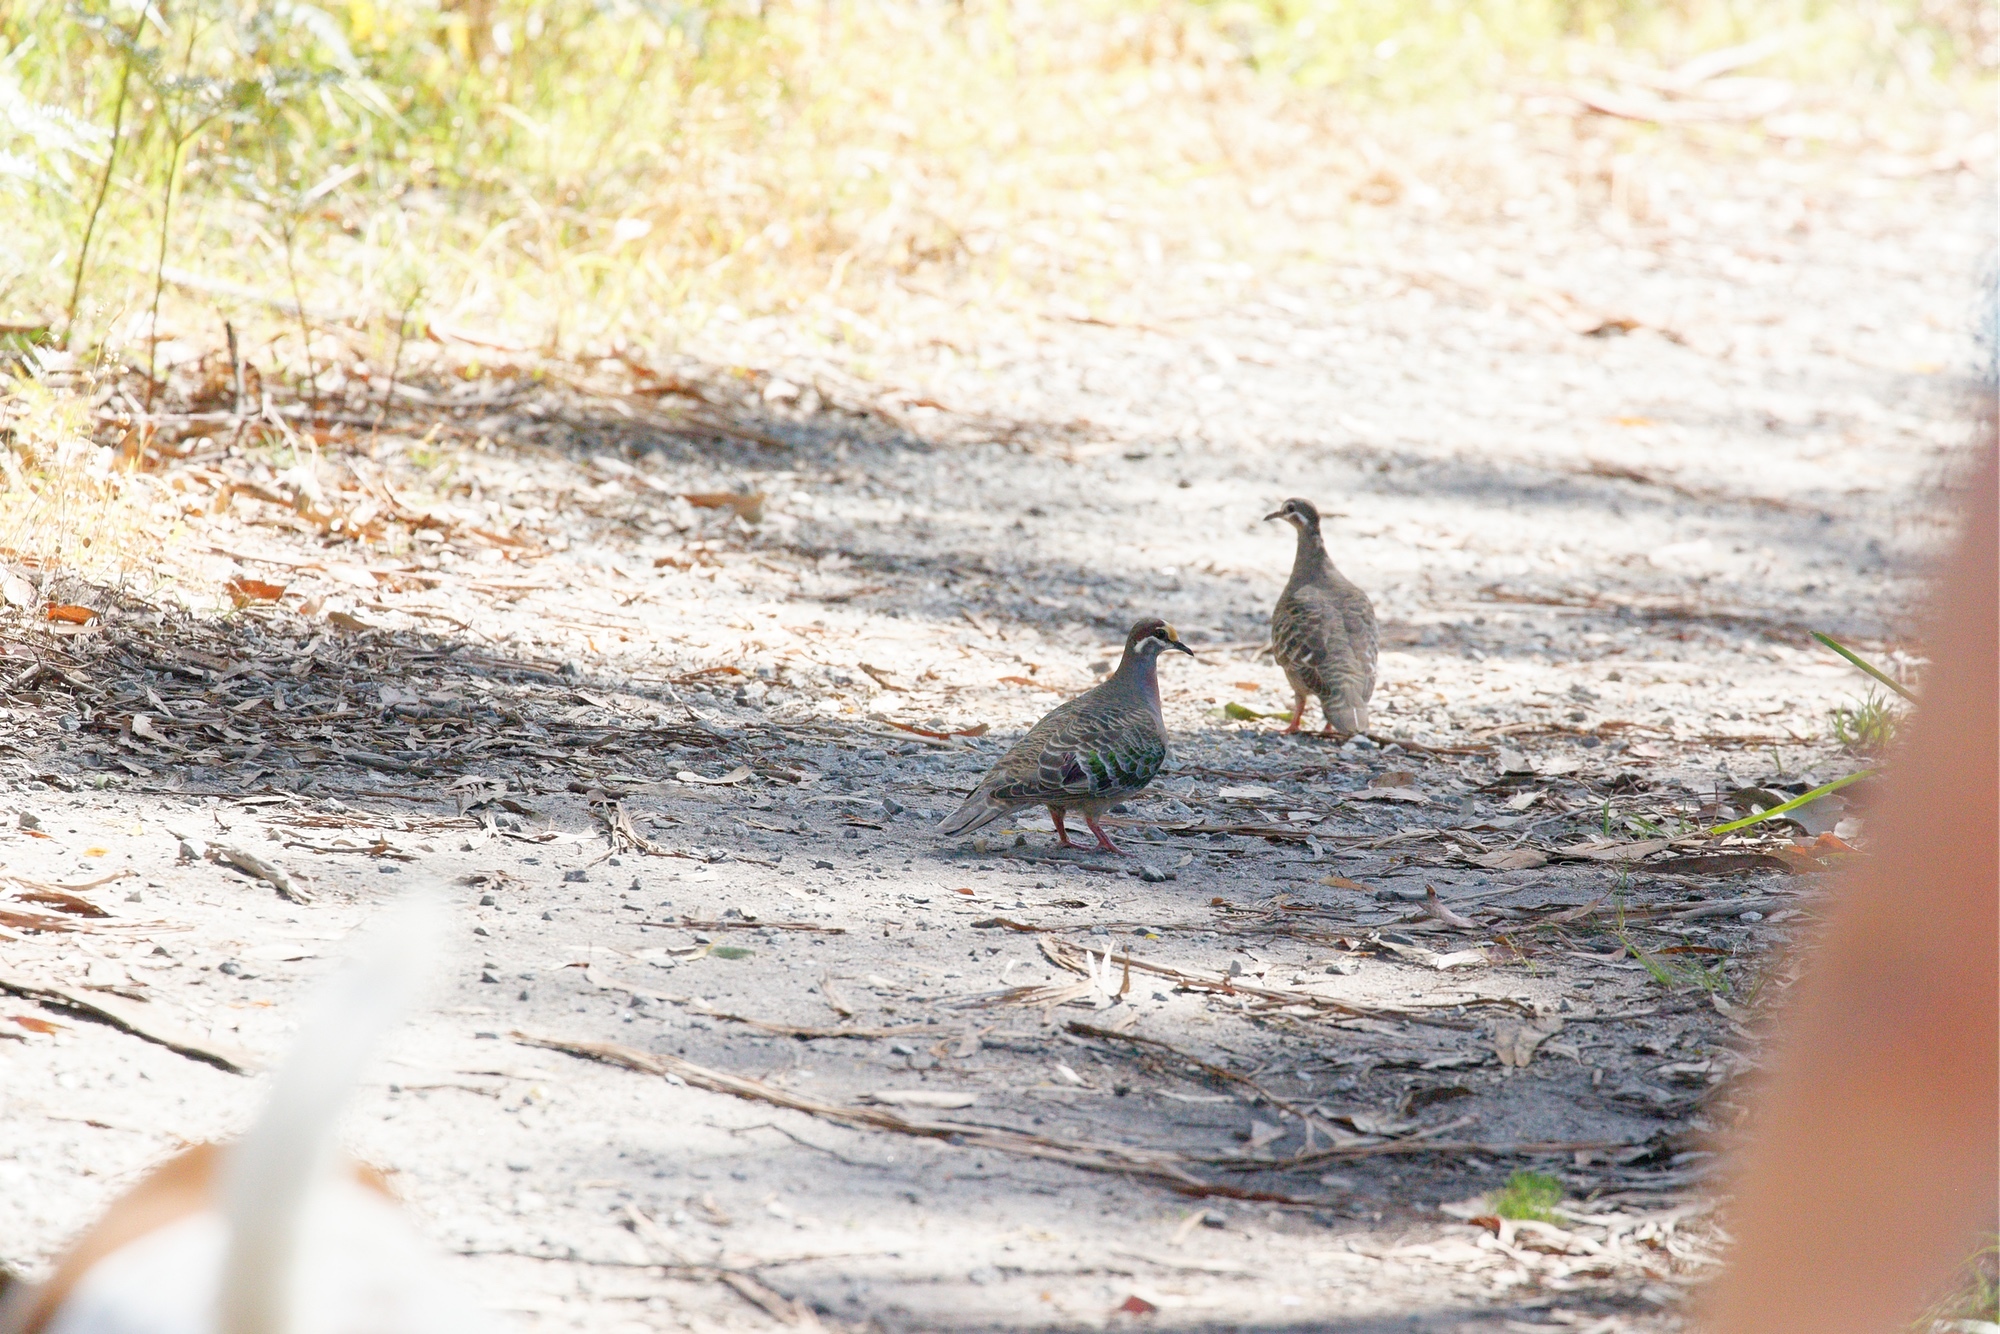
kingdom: Animalia
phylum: Chordata
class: Aves
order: Columbiformes
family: Columbidae
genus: Phaps
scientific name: Phaps chalcoptera
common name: Common bronzewing
